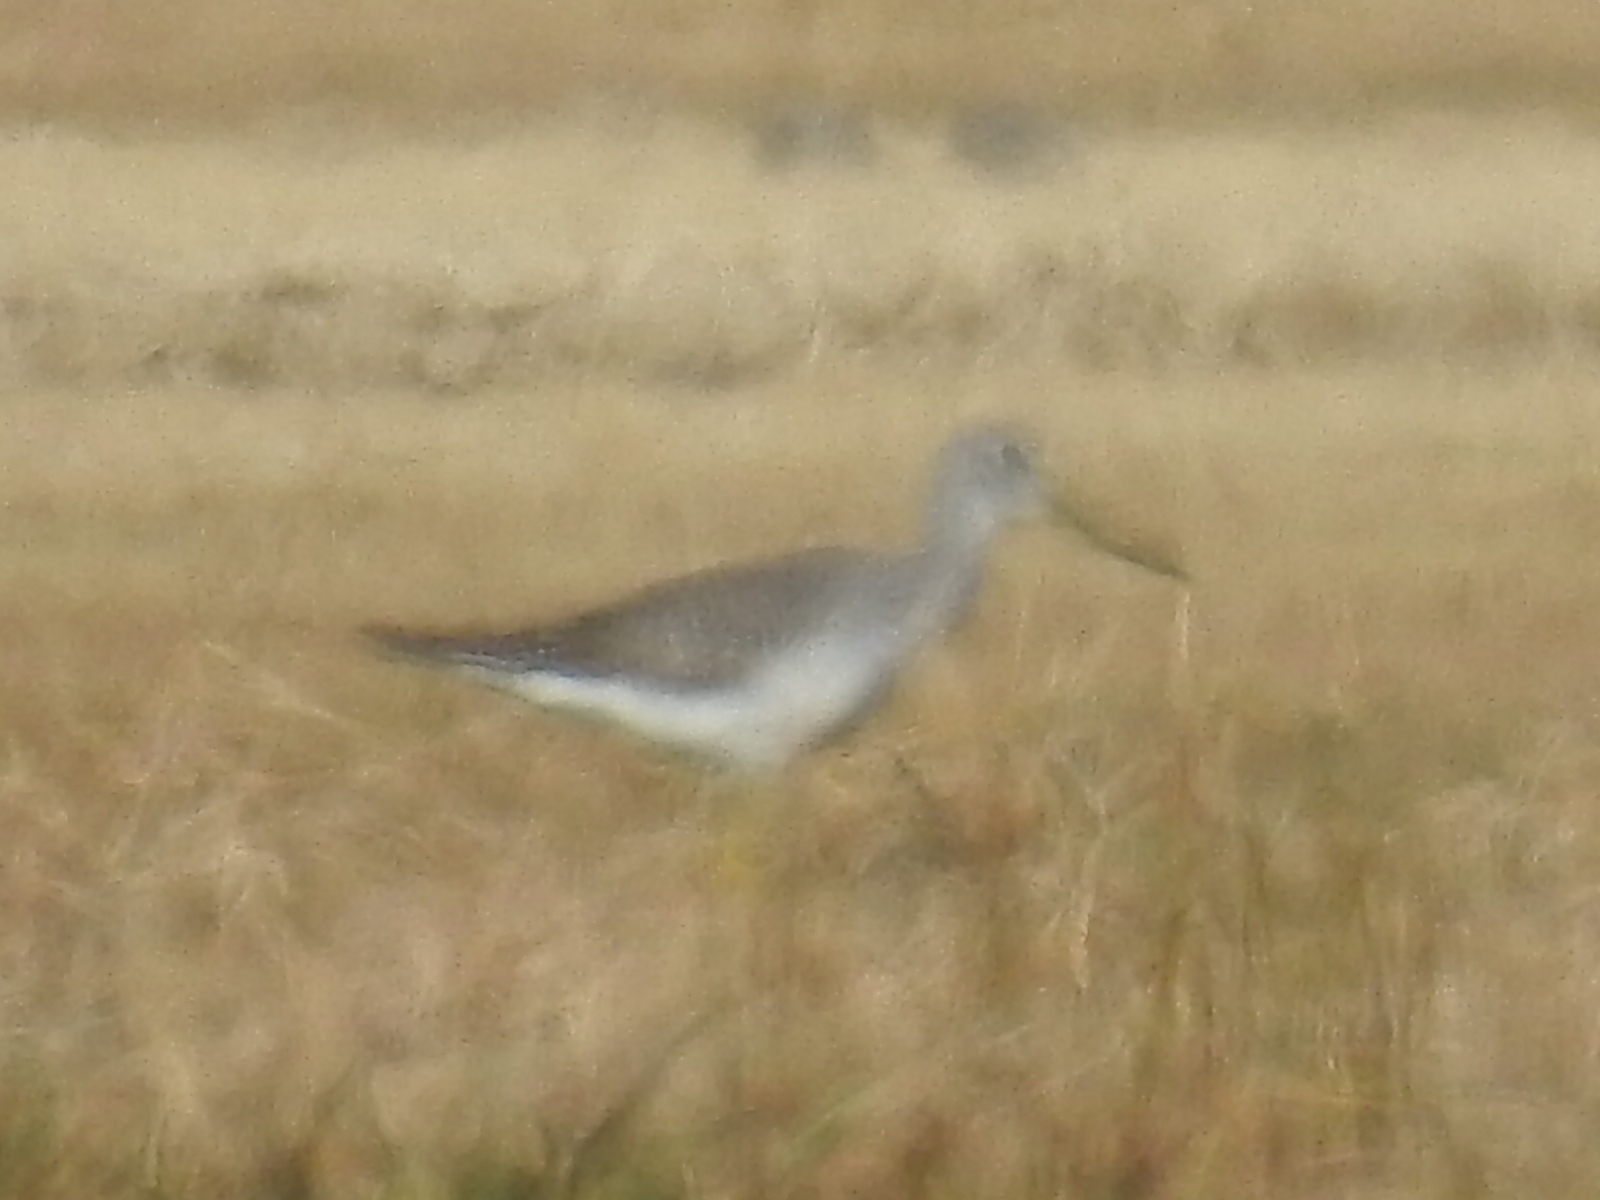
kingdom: Animalia
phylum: Chordata
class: Aves
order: Charadriiformes
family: Scolopacidae
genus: Tringa
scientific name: Tringa melanoleuca
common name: Greater yellowlegs
